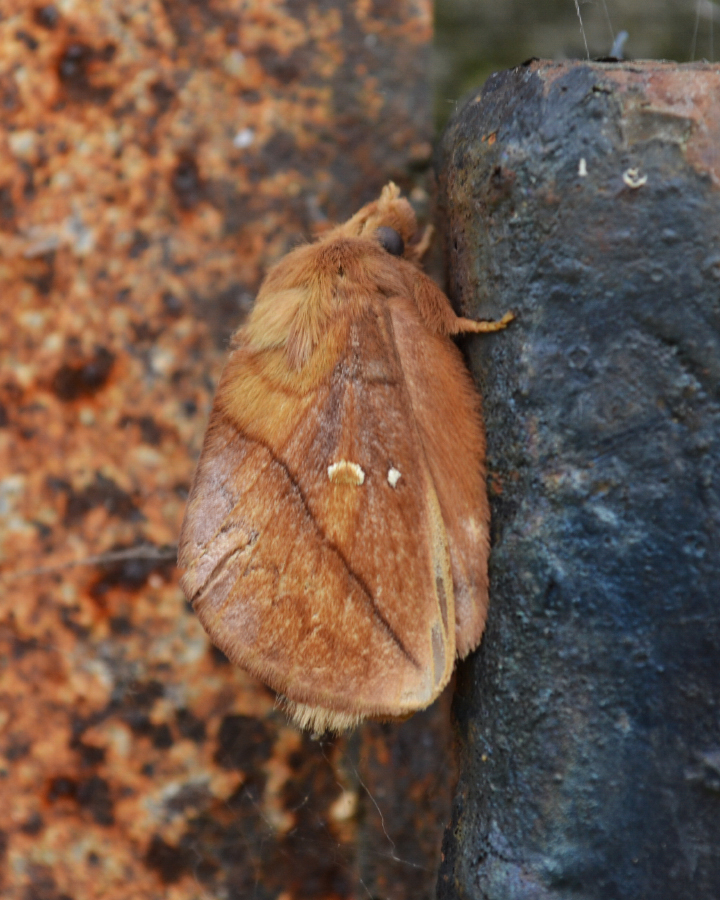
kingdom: Animalia
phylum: Arthropoda
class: Insecta
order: Lepidoptera
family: Lasiocampidae
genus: Euthrix
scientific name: Euthrix potatoria
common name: Drinker
